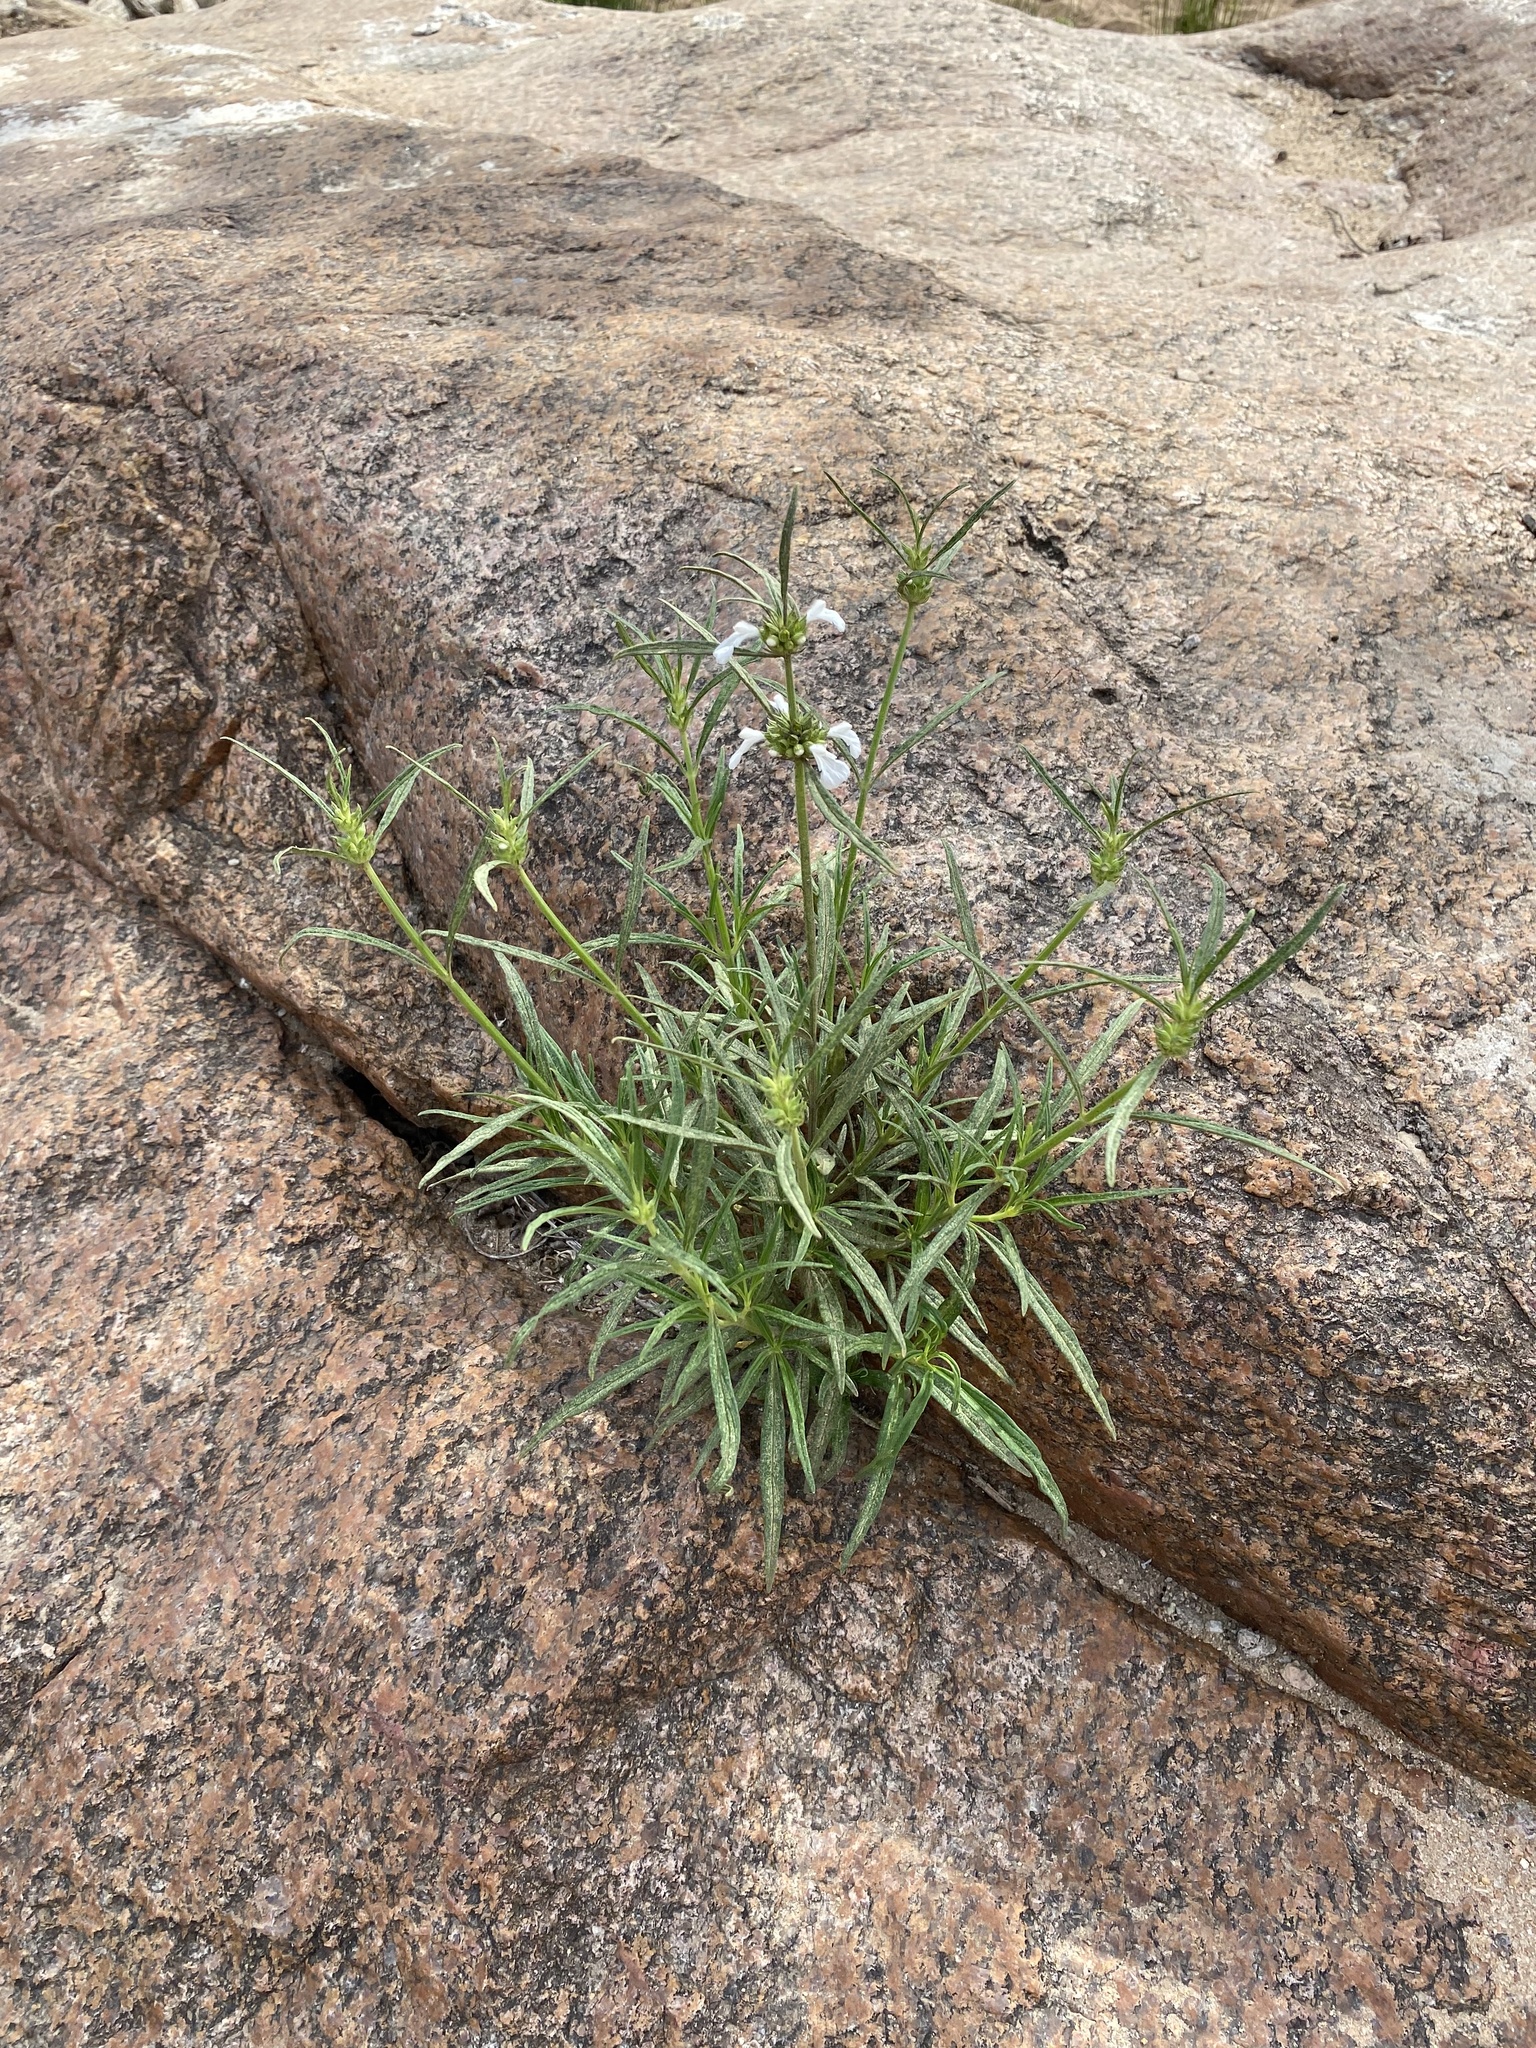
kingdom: Plantae
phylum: Tracheophyta
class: Magnoliopsida
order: Lamiales
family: Lamiaceae
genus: Leucas
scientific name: Leucas lavandulifolia
